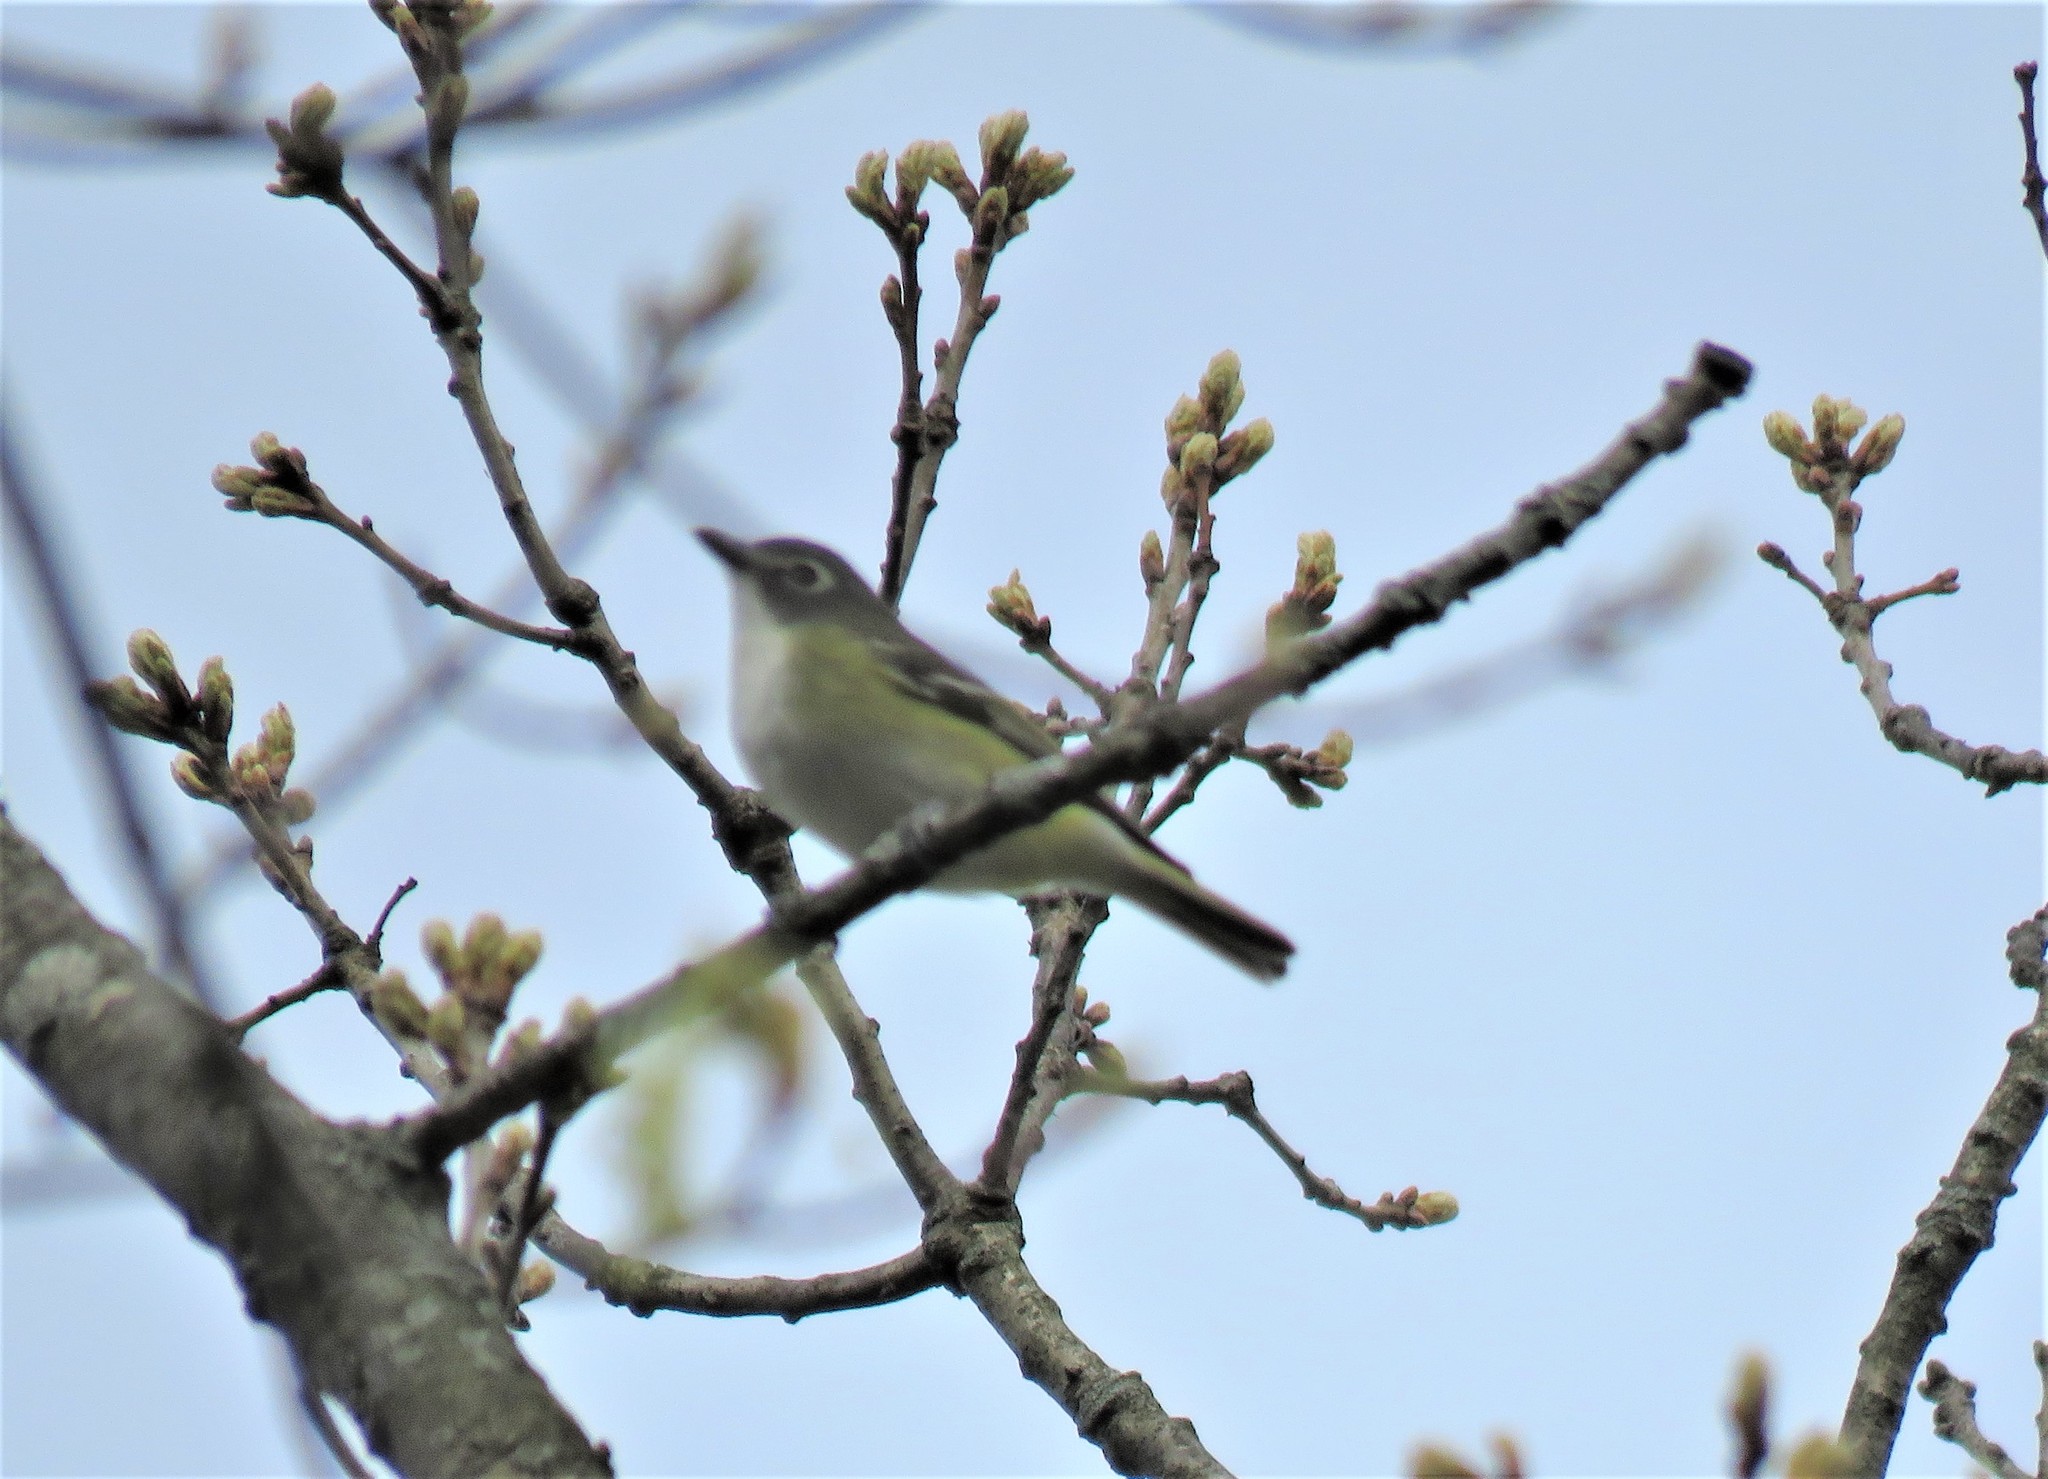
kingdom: Animalia
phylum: Chordata
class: Aves
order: Passeriformes
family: Vireonidae
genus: Vireo
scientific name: Vireo solitarius
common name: Blue-headed vireo
